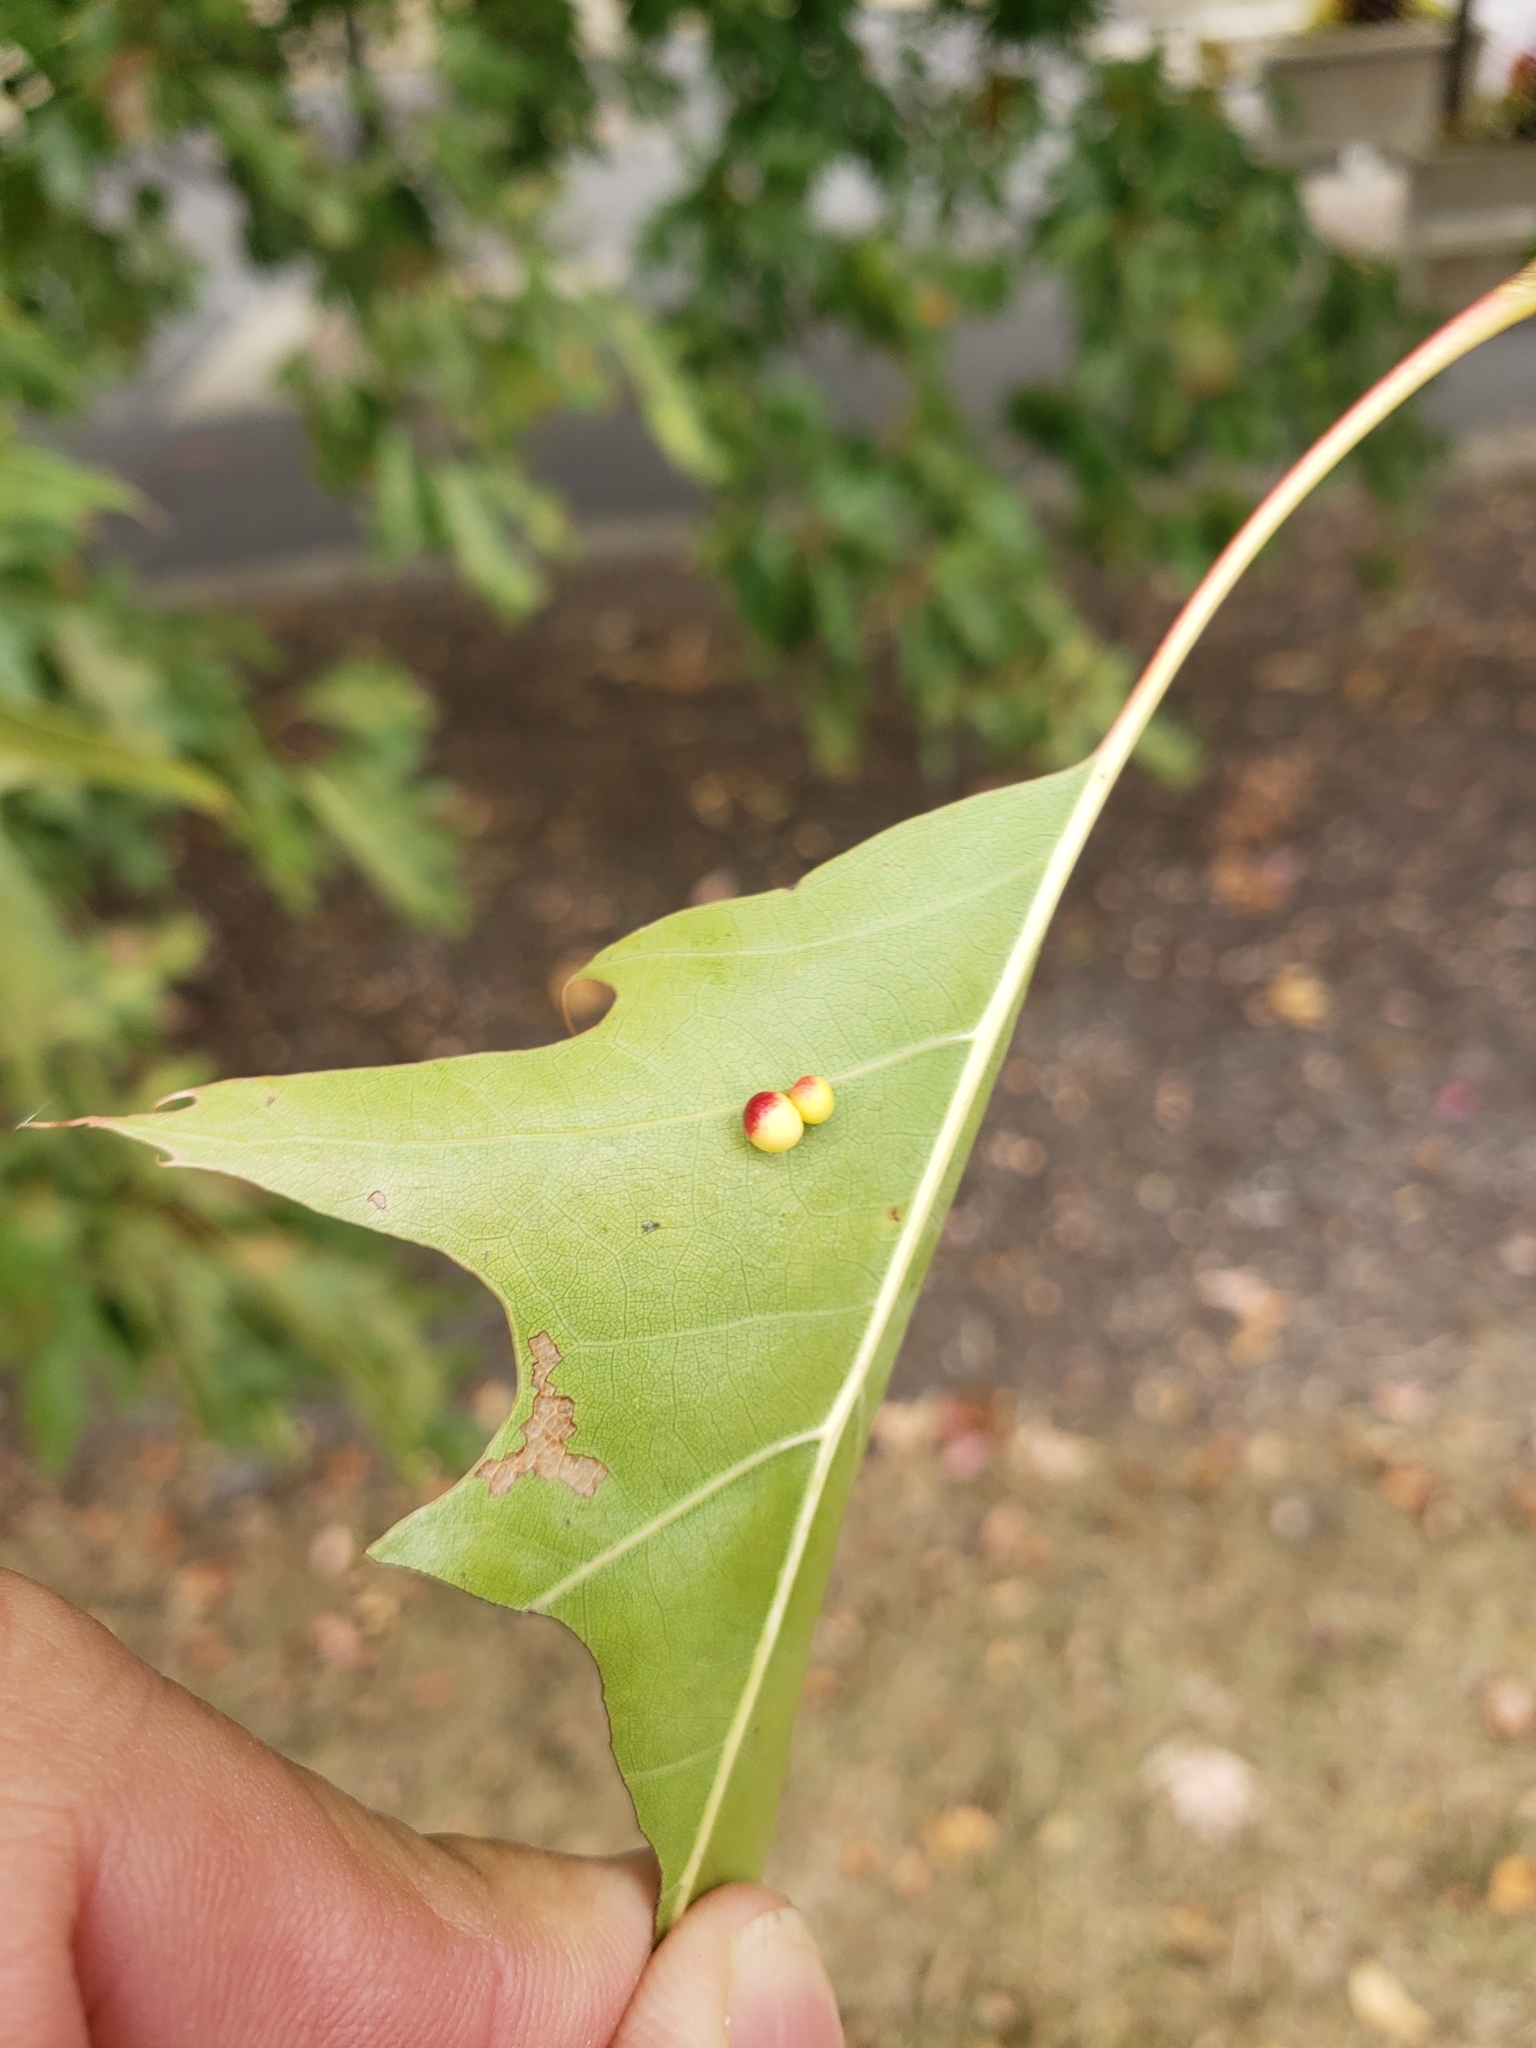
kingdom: Animalia
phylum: Arthropoda
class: Insecta
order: Hymenoptera
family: Cynipidae
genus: Zopheroteras
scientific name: Zopheroteras
